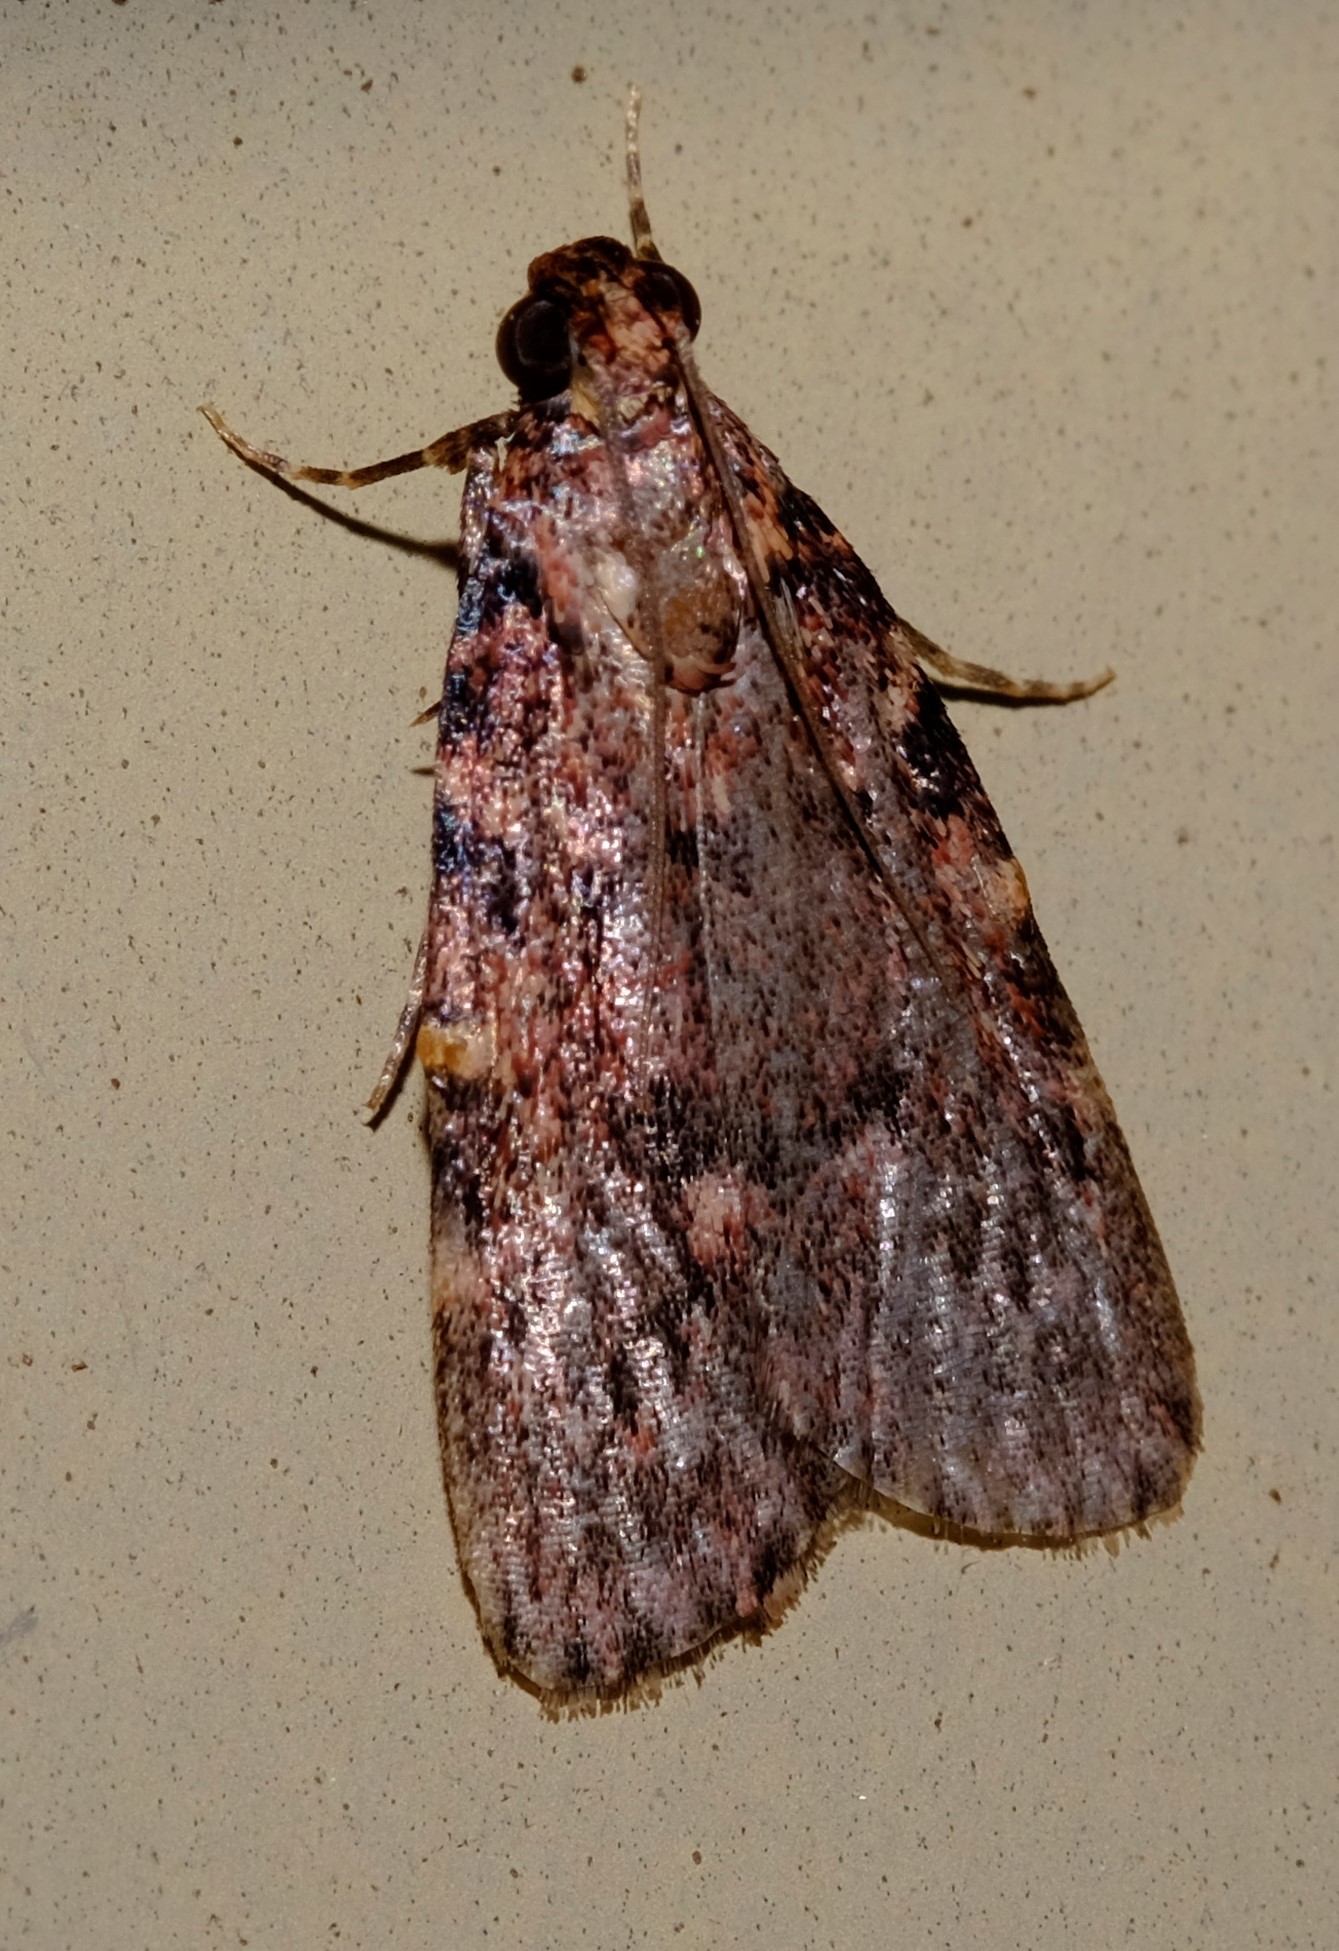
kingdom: Animalia
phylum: Arthropoda
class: Insecta
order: Lepidoptera
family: Pyralidae
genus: Mimaglossa
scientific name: Mimaglossa nauplialis
